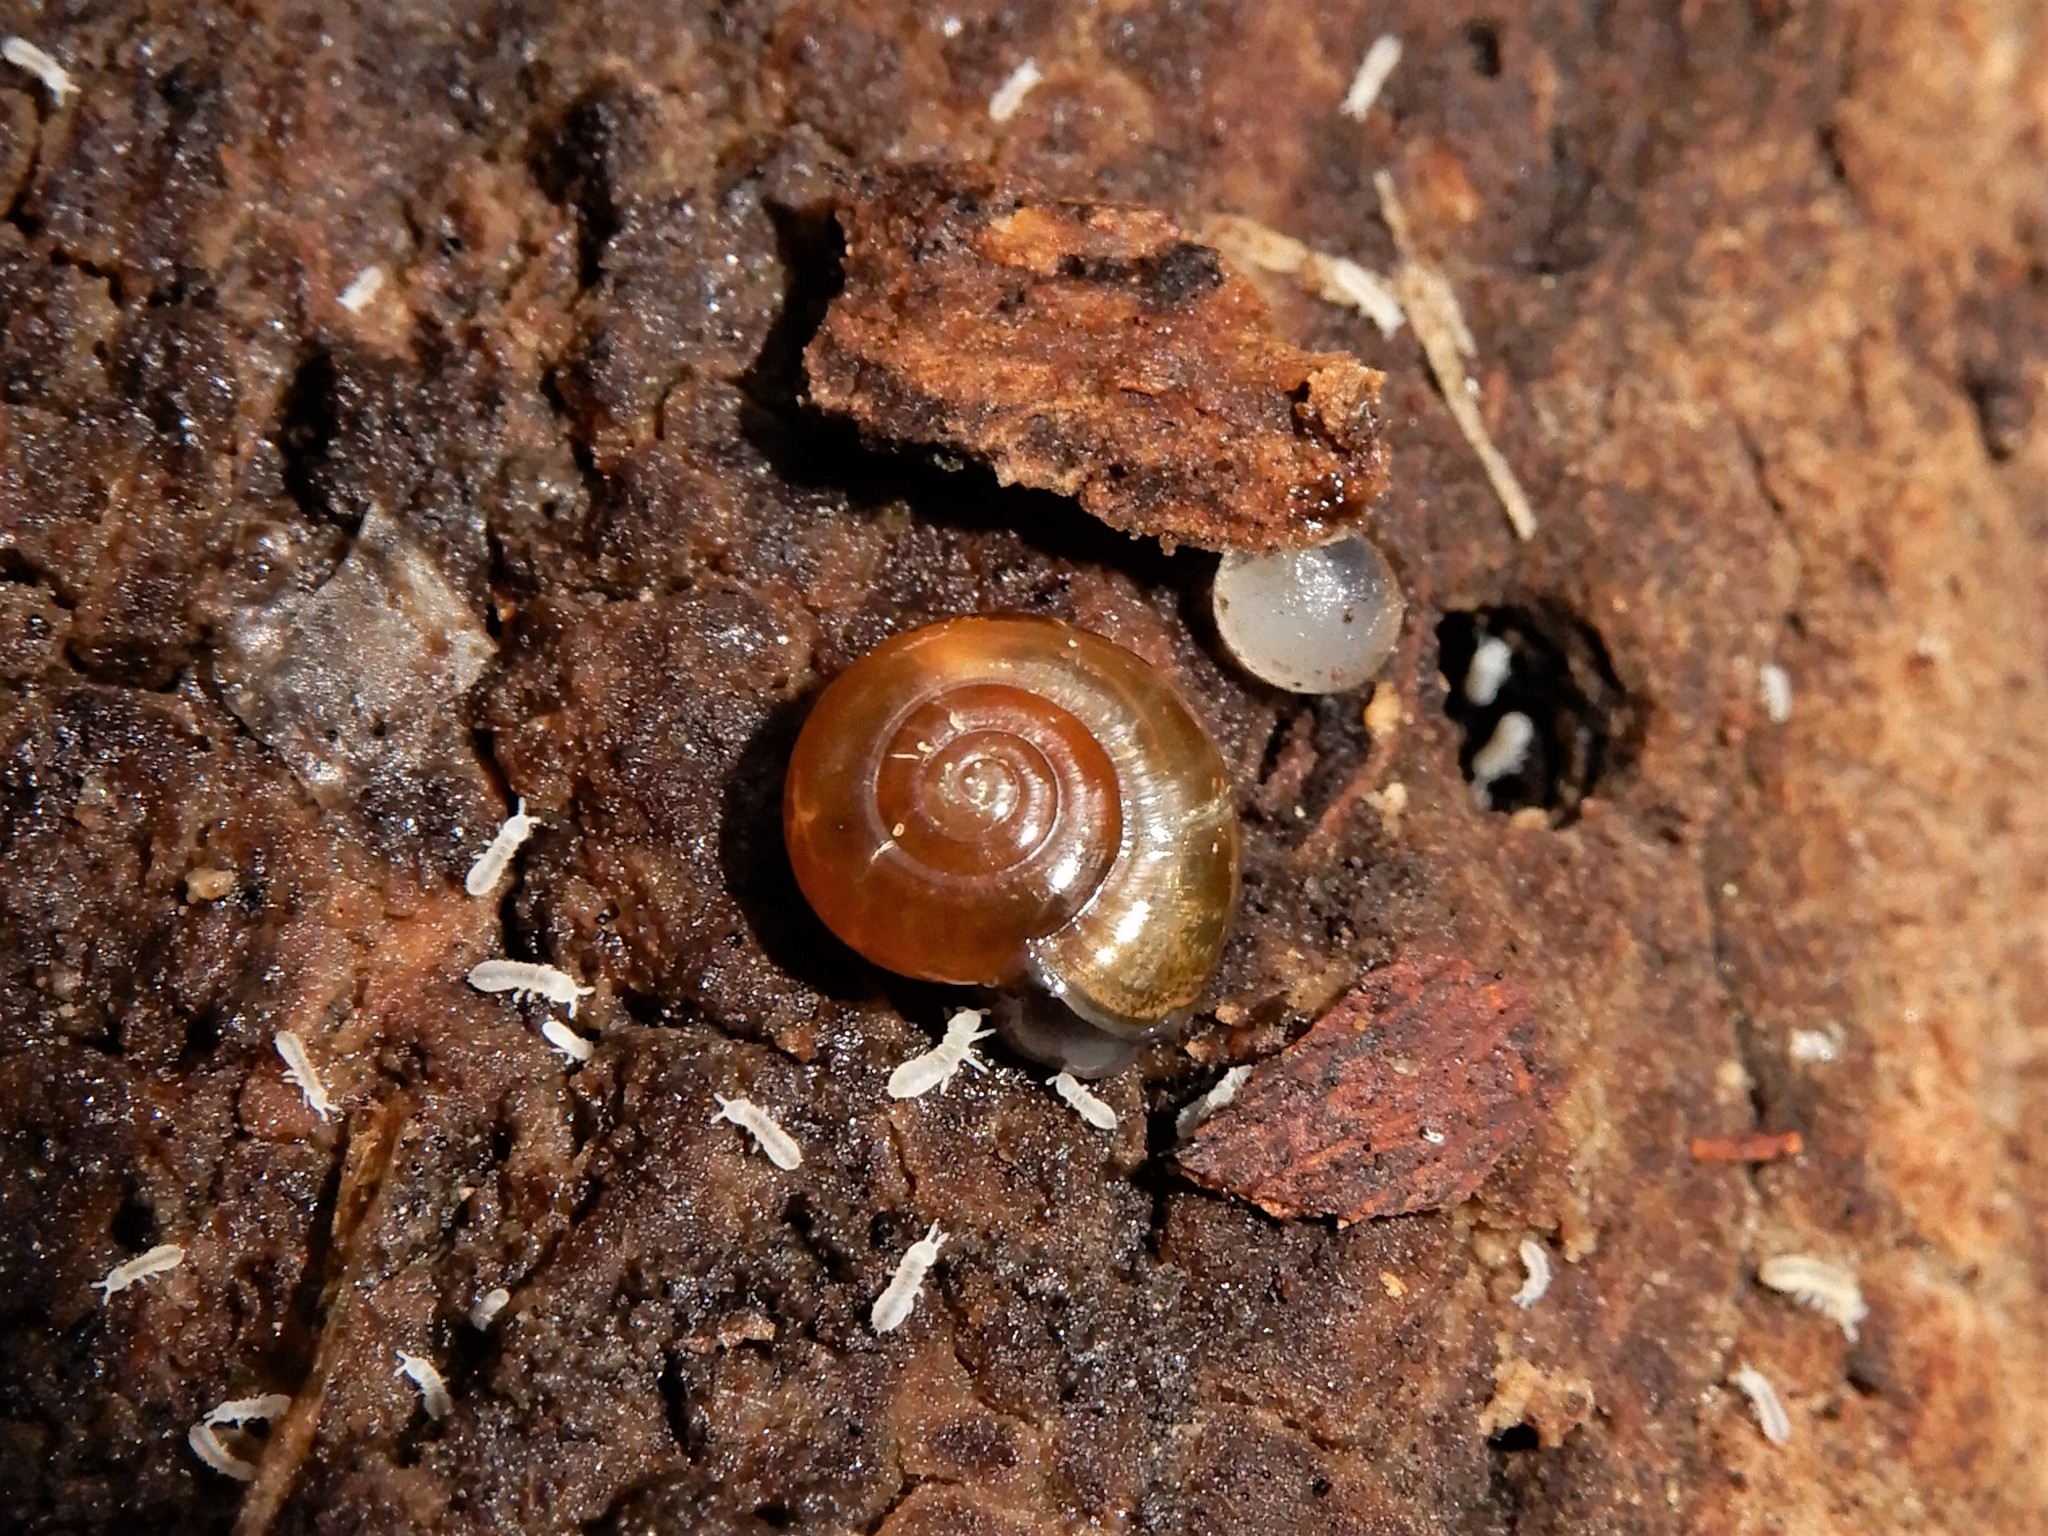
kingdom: Animalia
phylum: Mollusca
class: Gastropoda
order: Stylommatophora
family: Oxychilidae
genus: Oxychilus
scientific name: Oxychilus
